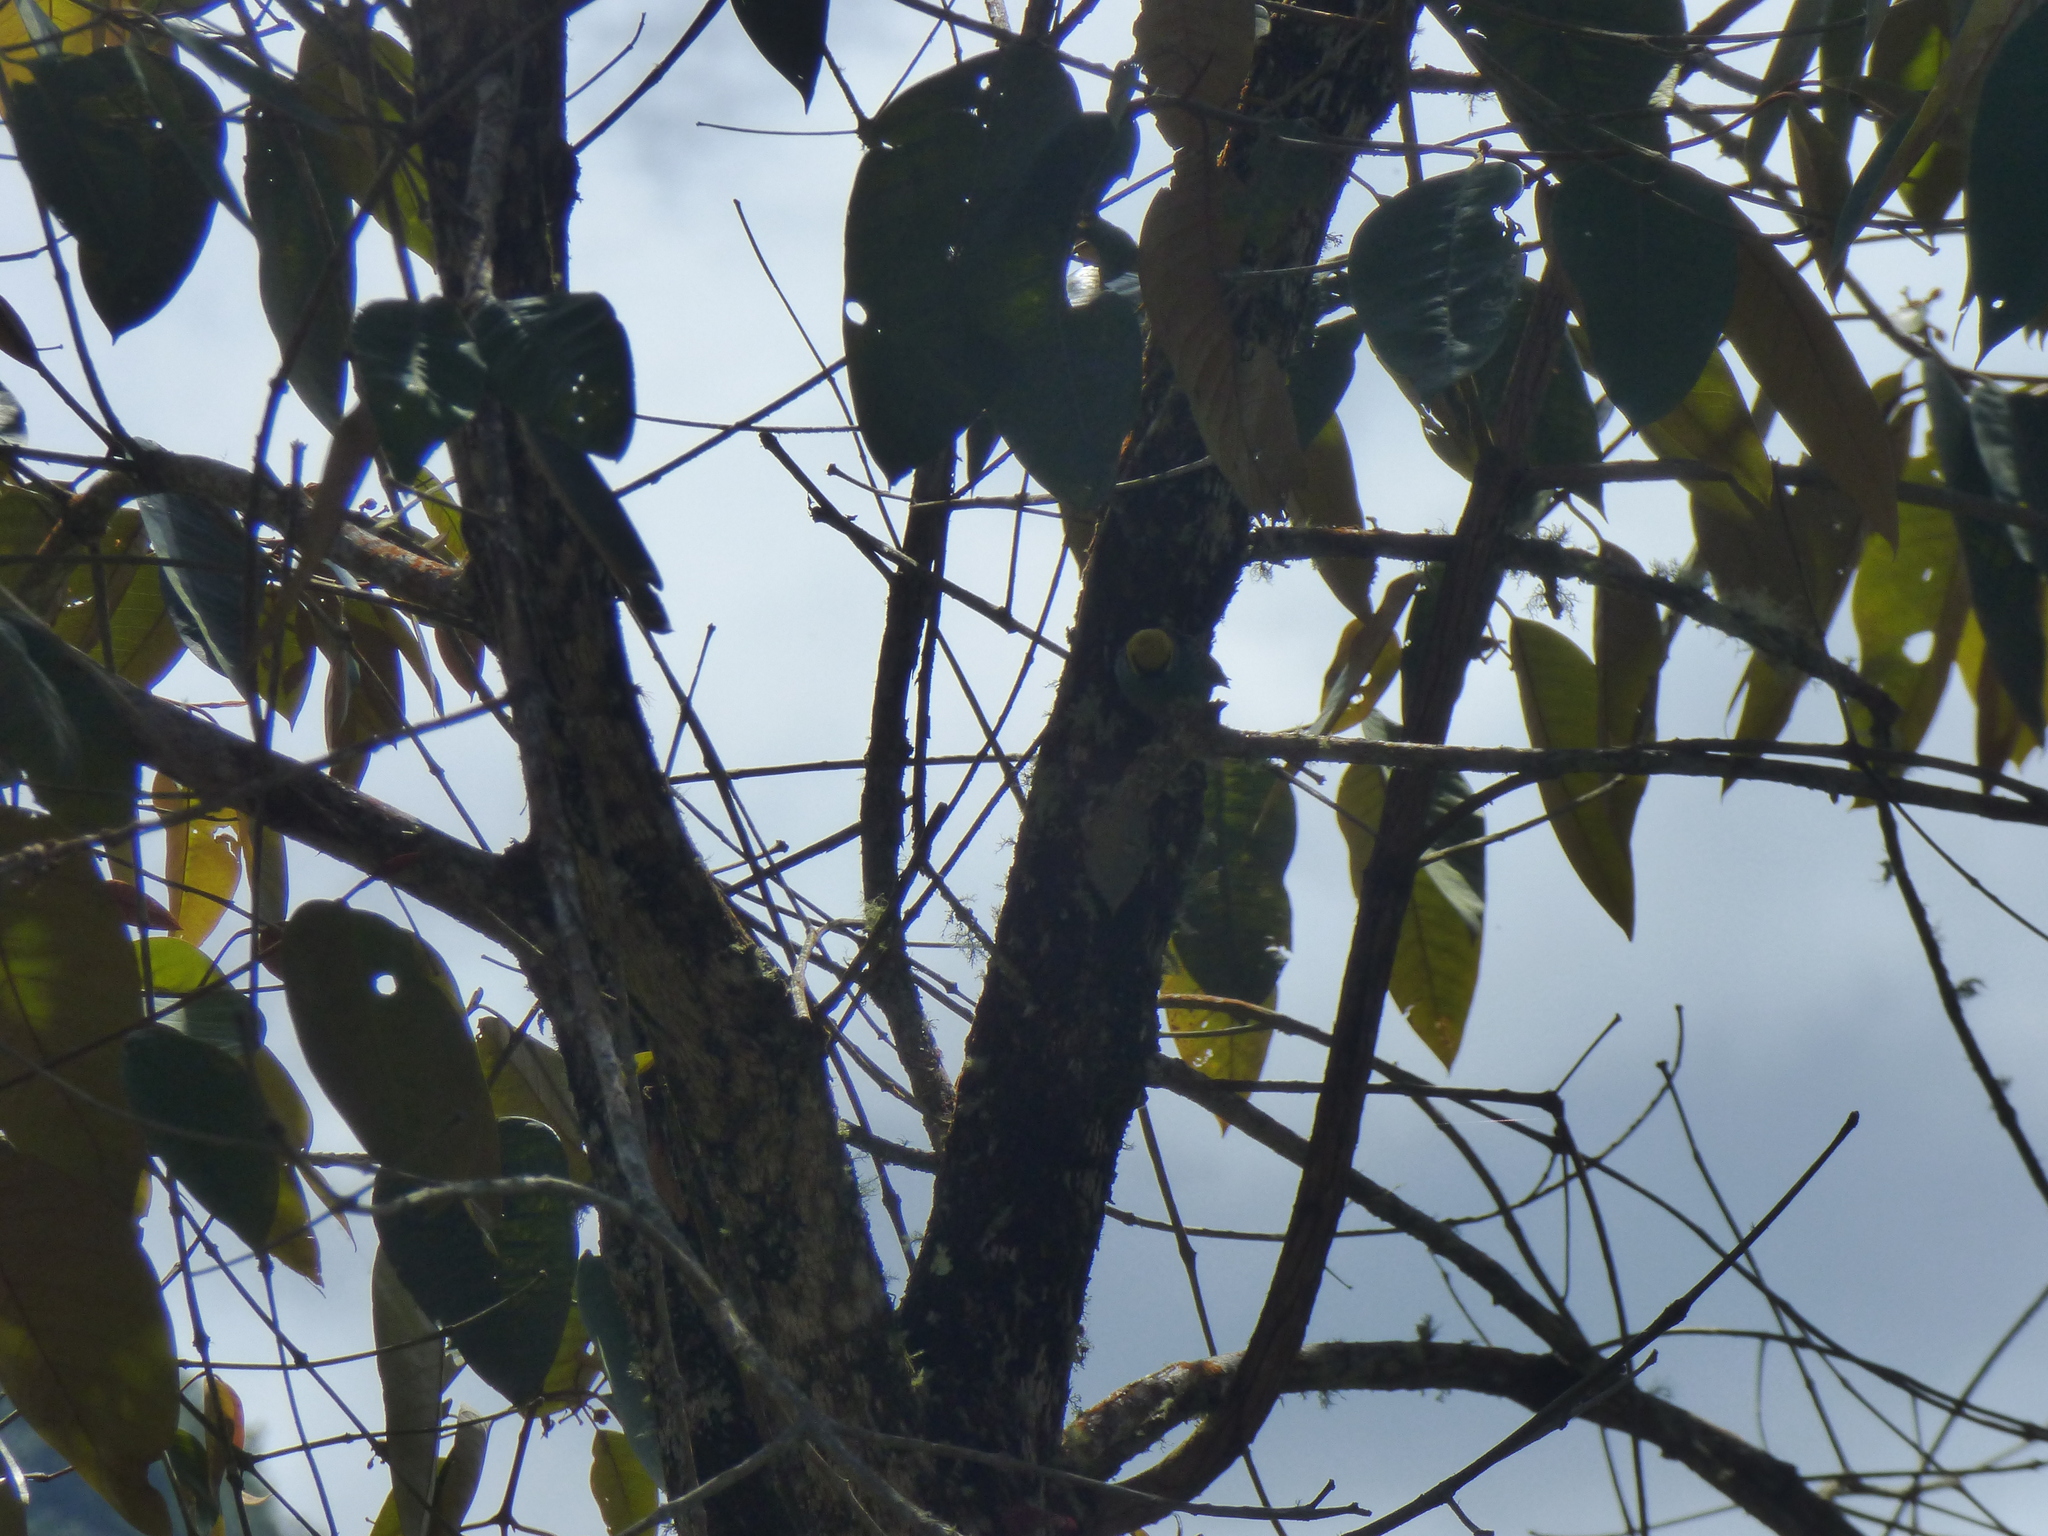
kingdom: Animalia
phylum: Chordata
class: Aves
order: Passeriformes
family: Thraupidae
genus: Tangara
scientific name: Tangara xanthocephala
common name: Saffron-crowned tanager
